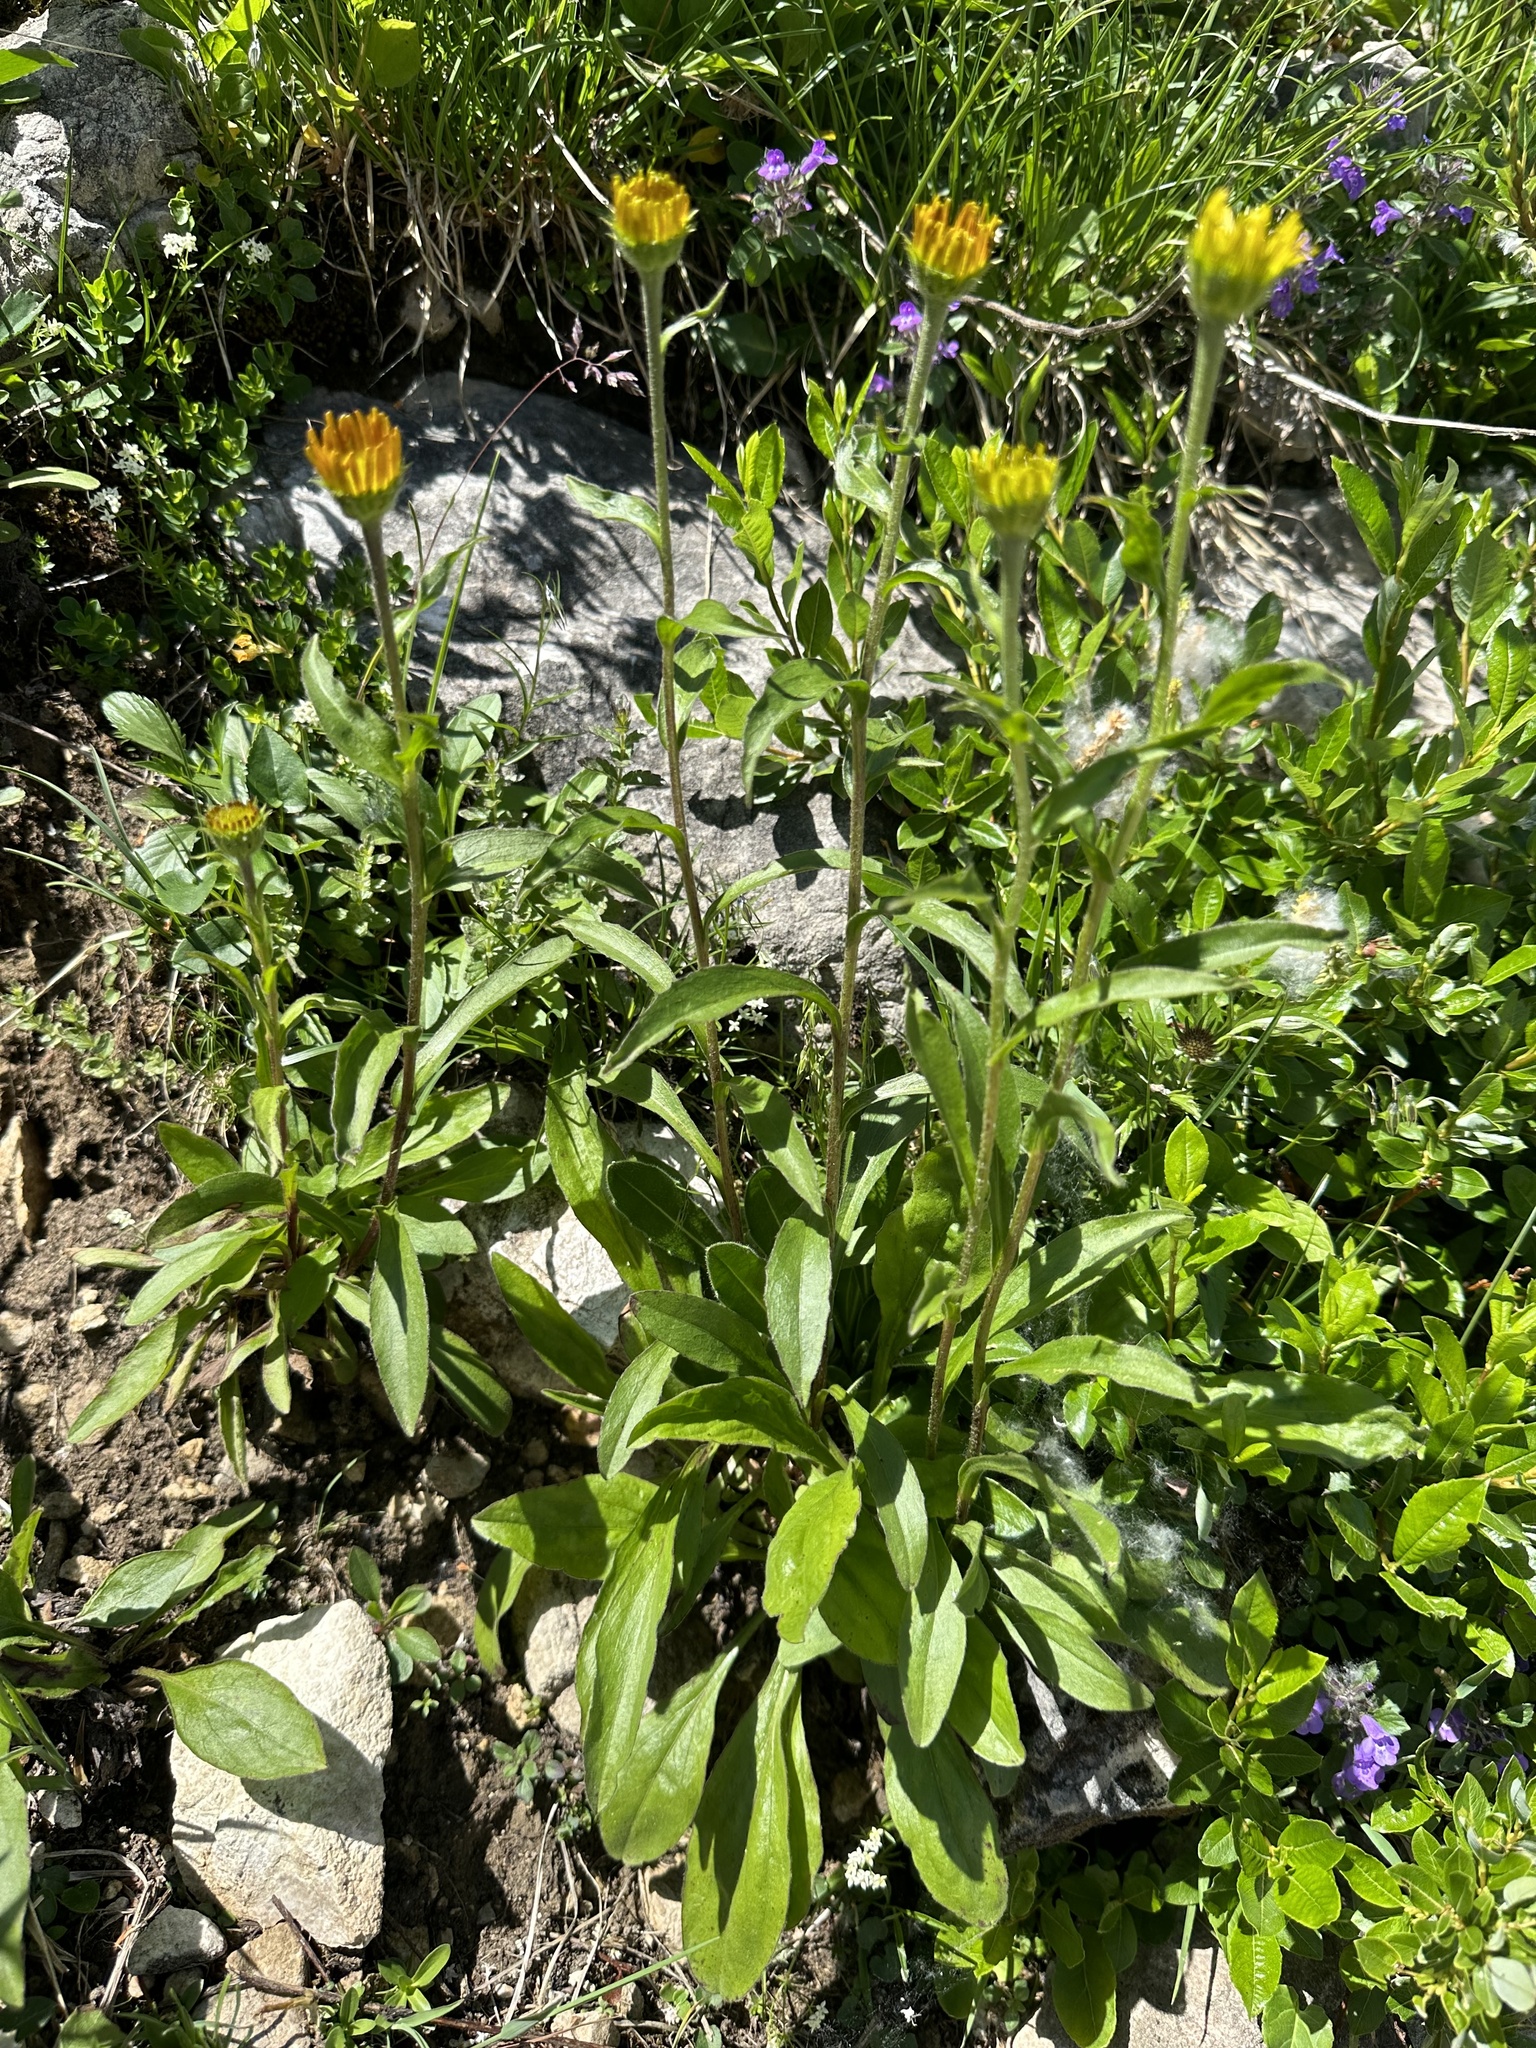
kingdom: Plantae
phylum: Tracheophyta
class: Magnoliopsida
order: Asterales
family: Asteraceae
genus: Buphthalmum
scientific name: Buphthalmum salicifolium
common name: Willow-leaved yellow-oxeye
